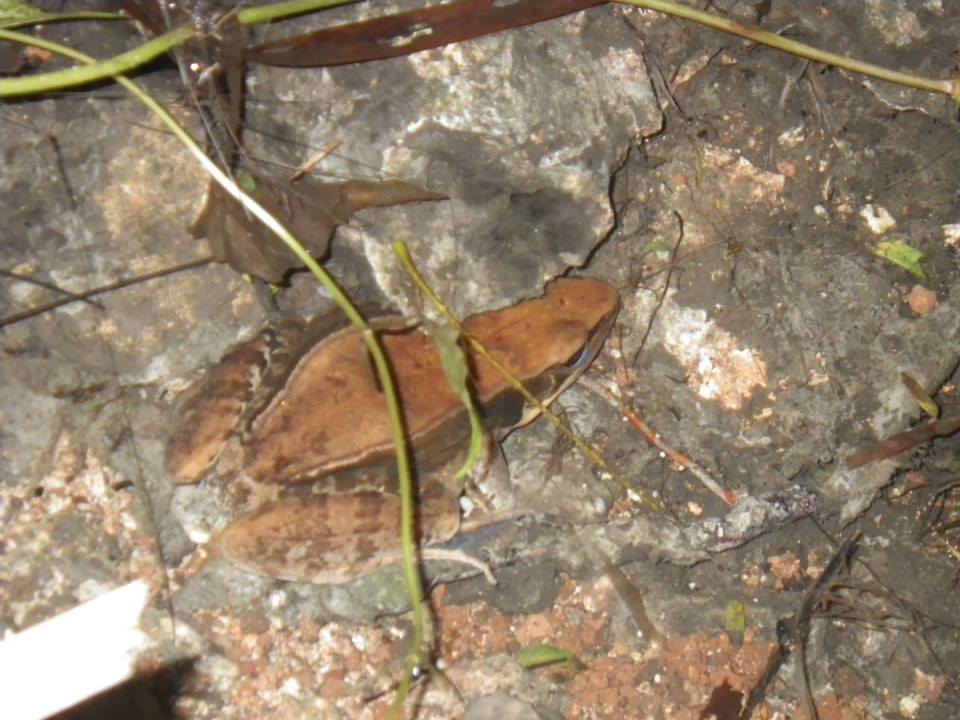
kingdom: Animalia
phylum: Chordata
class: Amphibia
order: Anura
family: Ranidae
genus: Sylvirana
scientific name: Sylvirana guentheri
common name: Guenther's amoy frog
